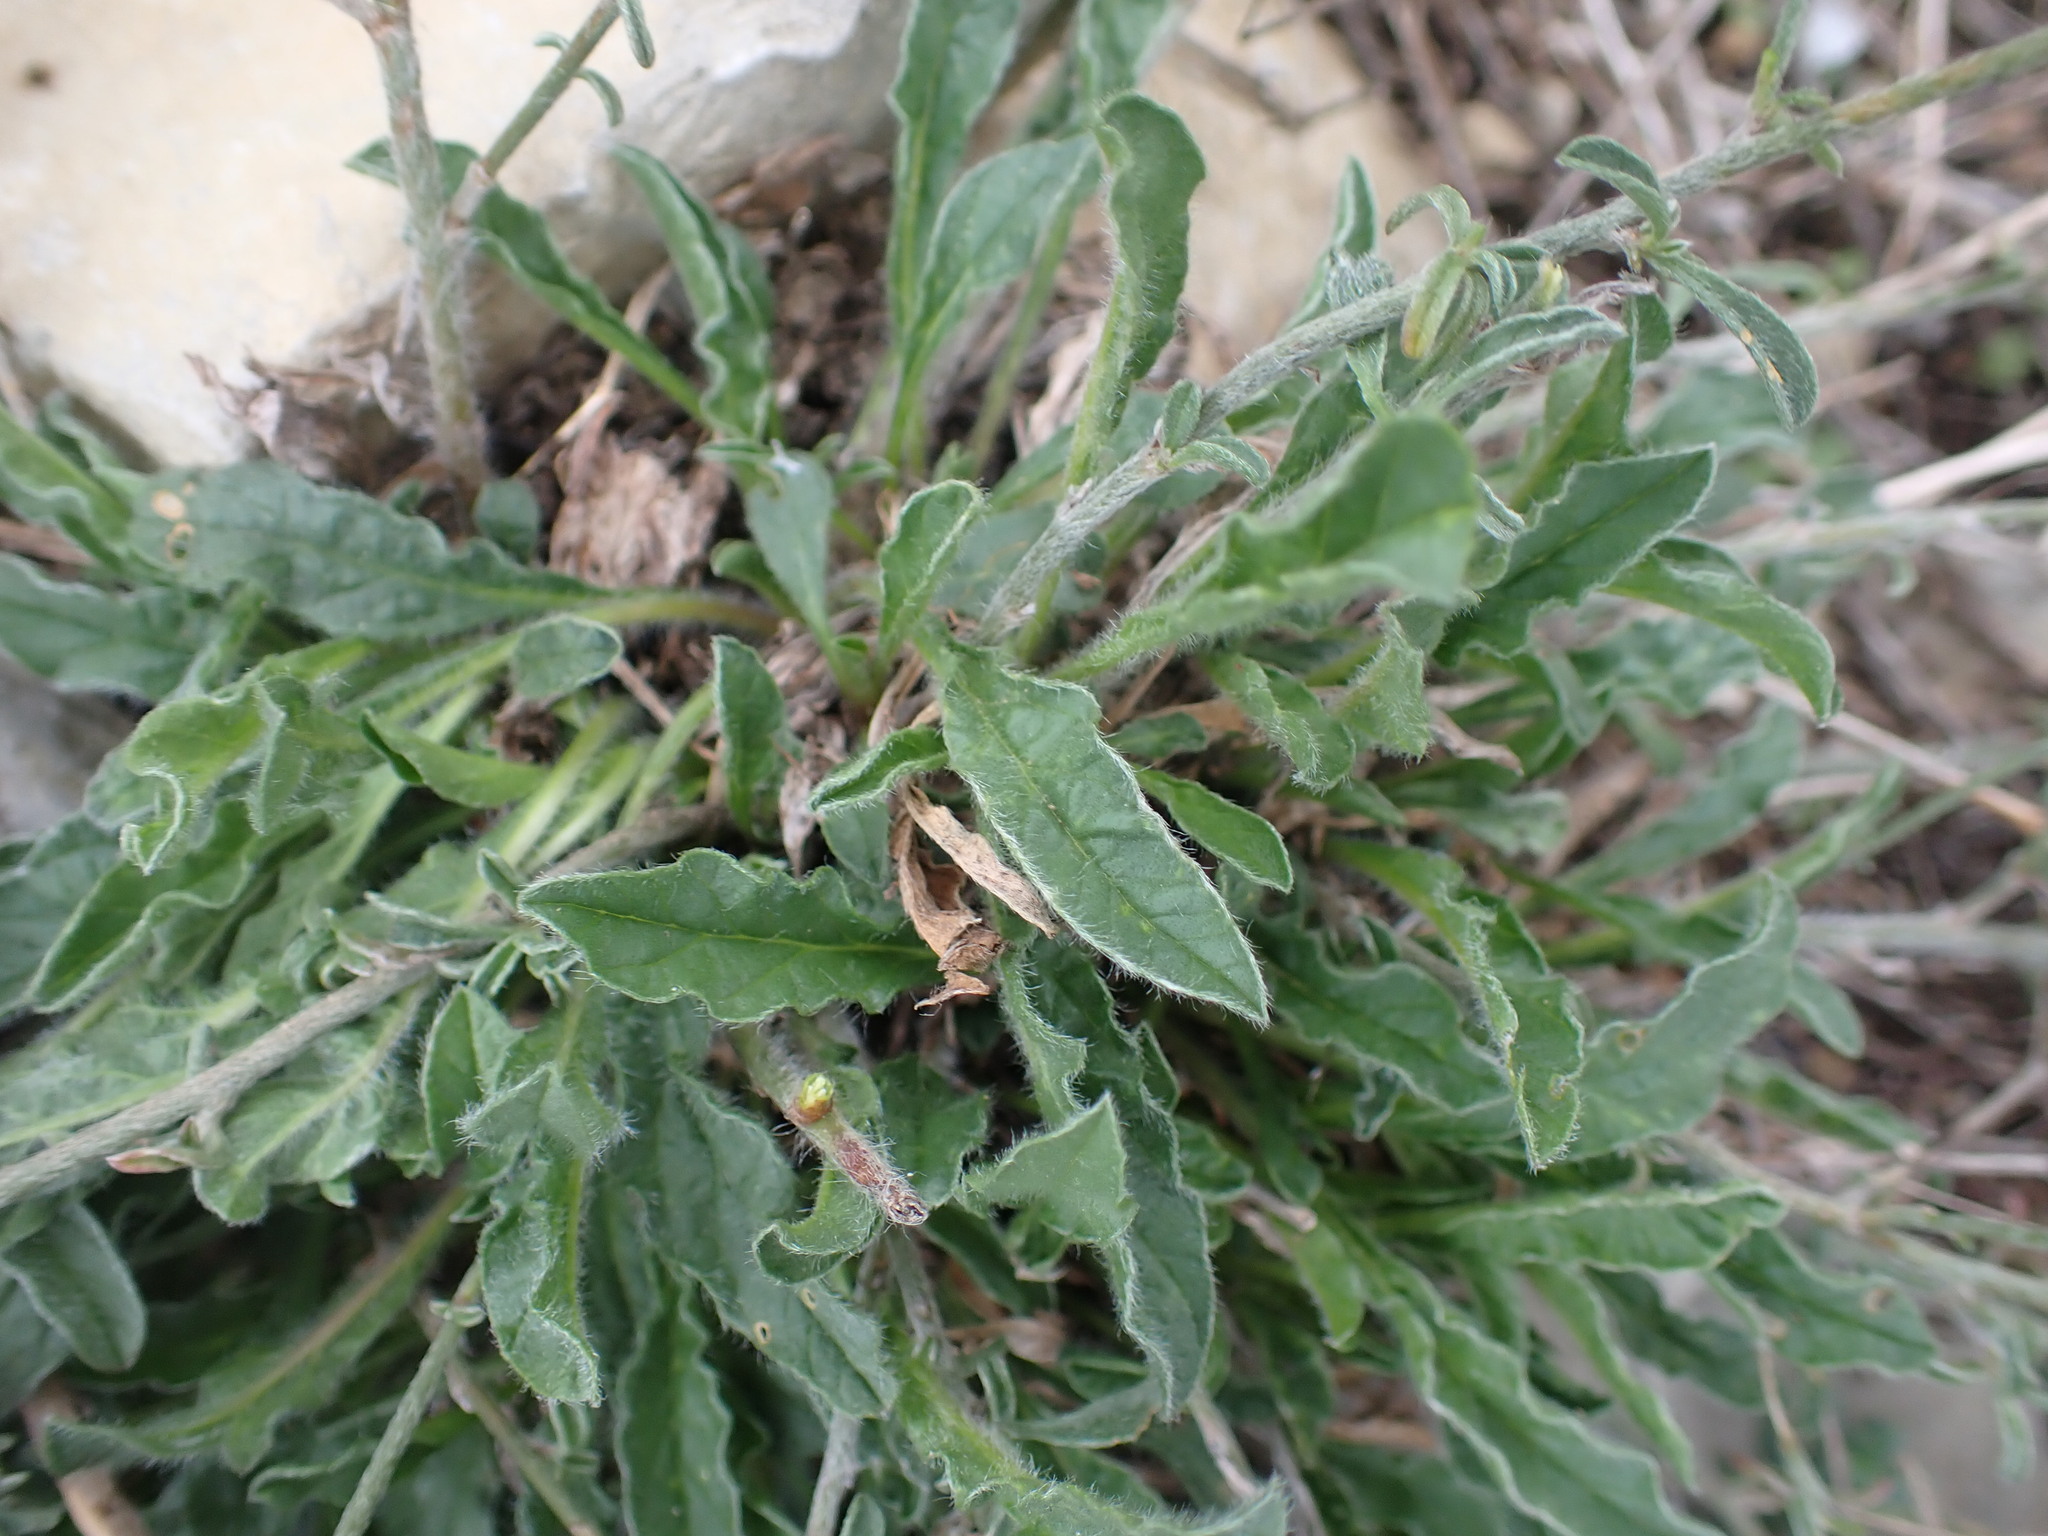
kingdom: Plantae
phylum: Tracheophyta
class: Magnoliopsida
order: Solanales
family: Convolvulaceae
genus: Convolvulus
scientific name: Convolvulus cantabrica
